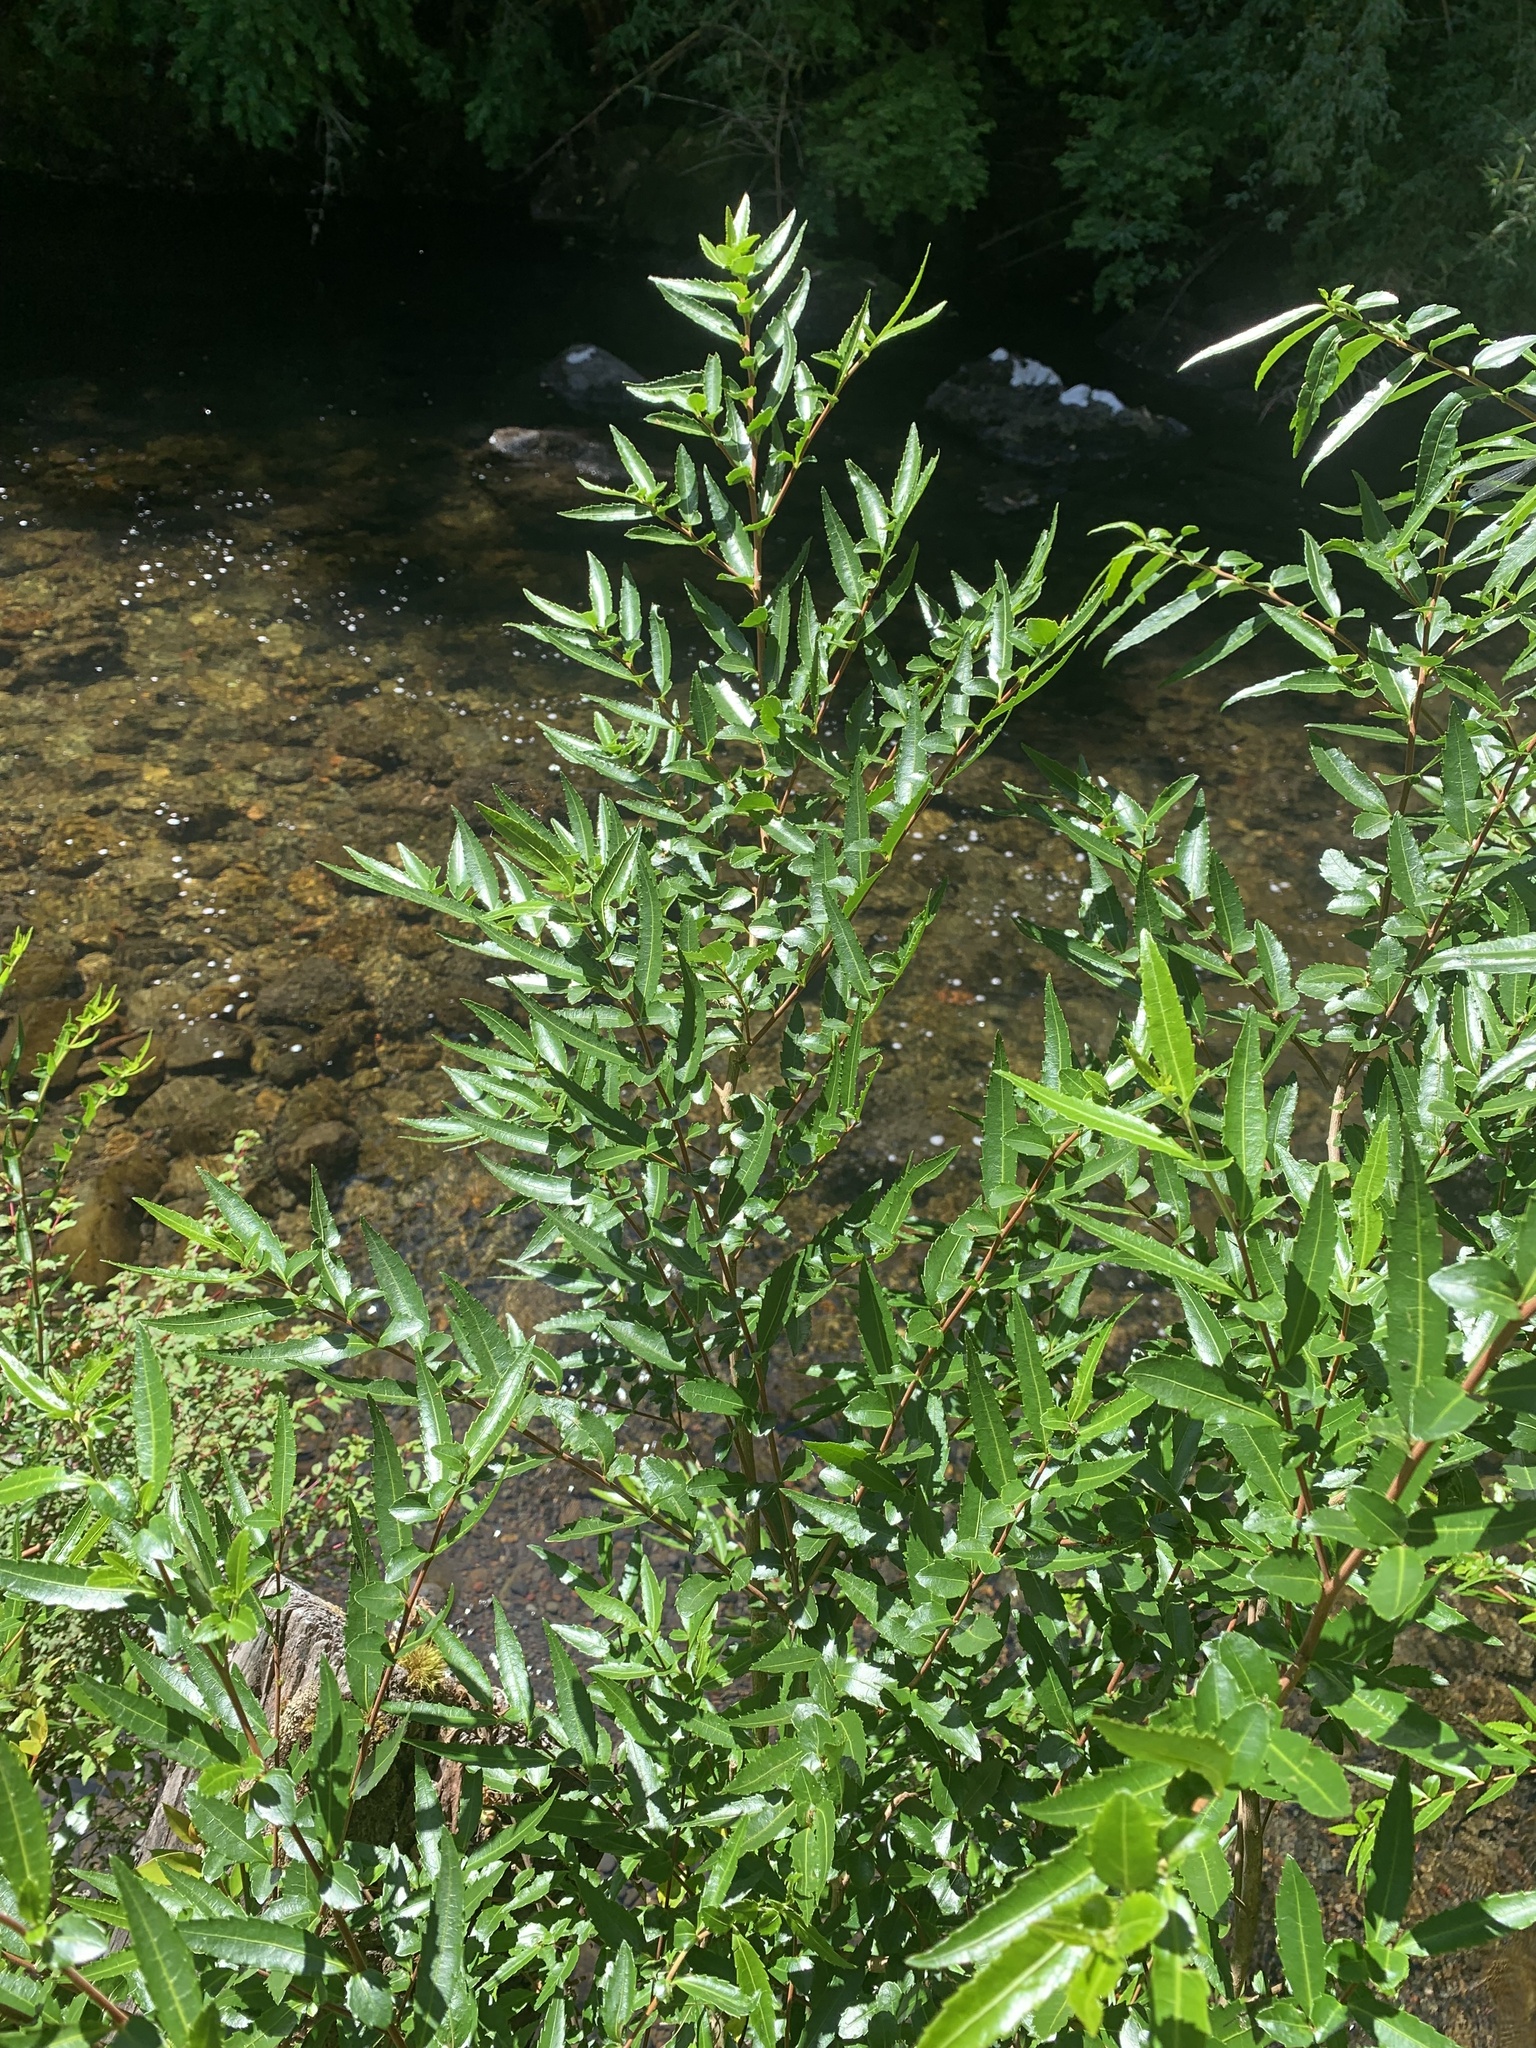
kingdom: Plantae
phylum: Tracheophyta
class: Magnoliopsida
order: Malpighiales
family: Salicaceae
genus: Azara
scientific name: Azara lanceolata
